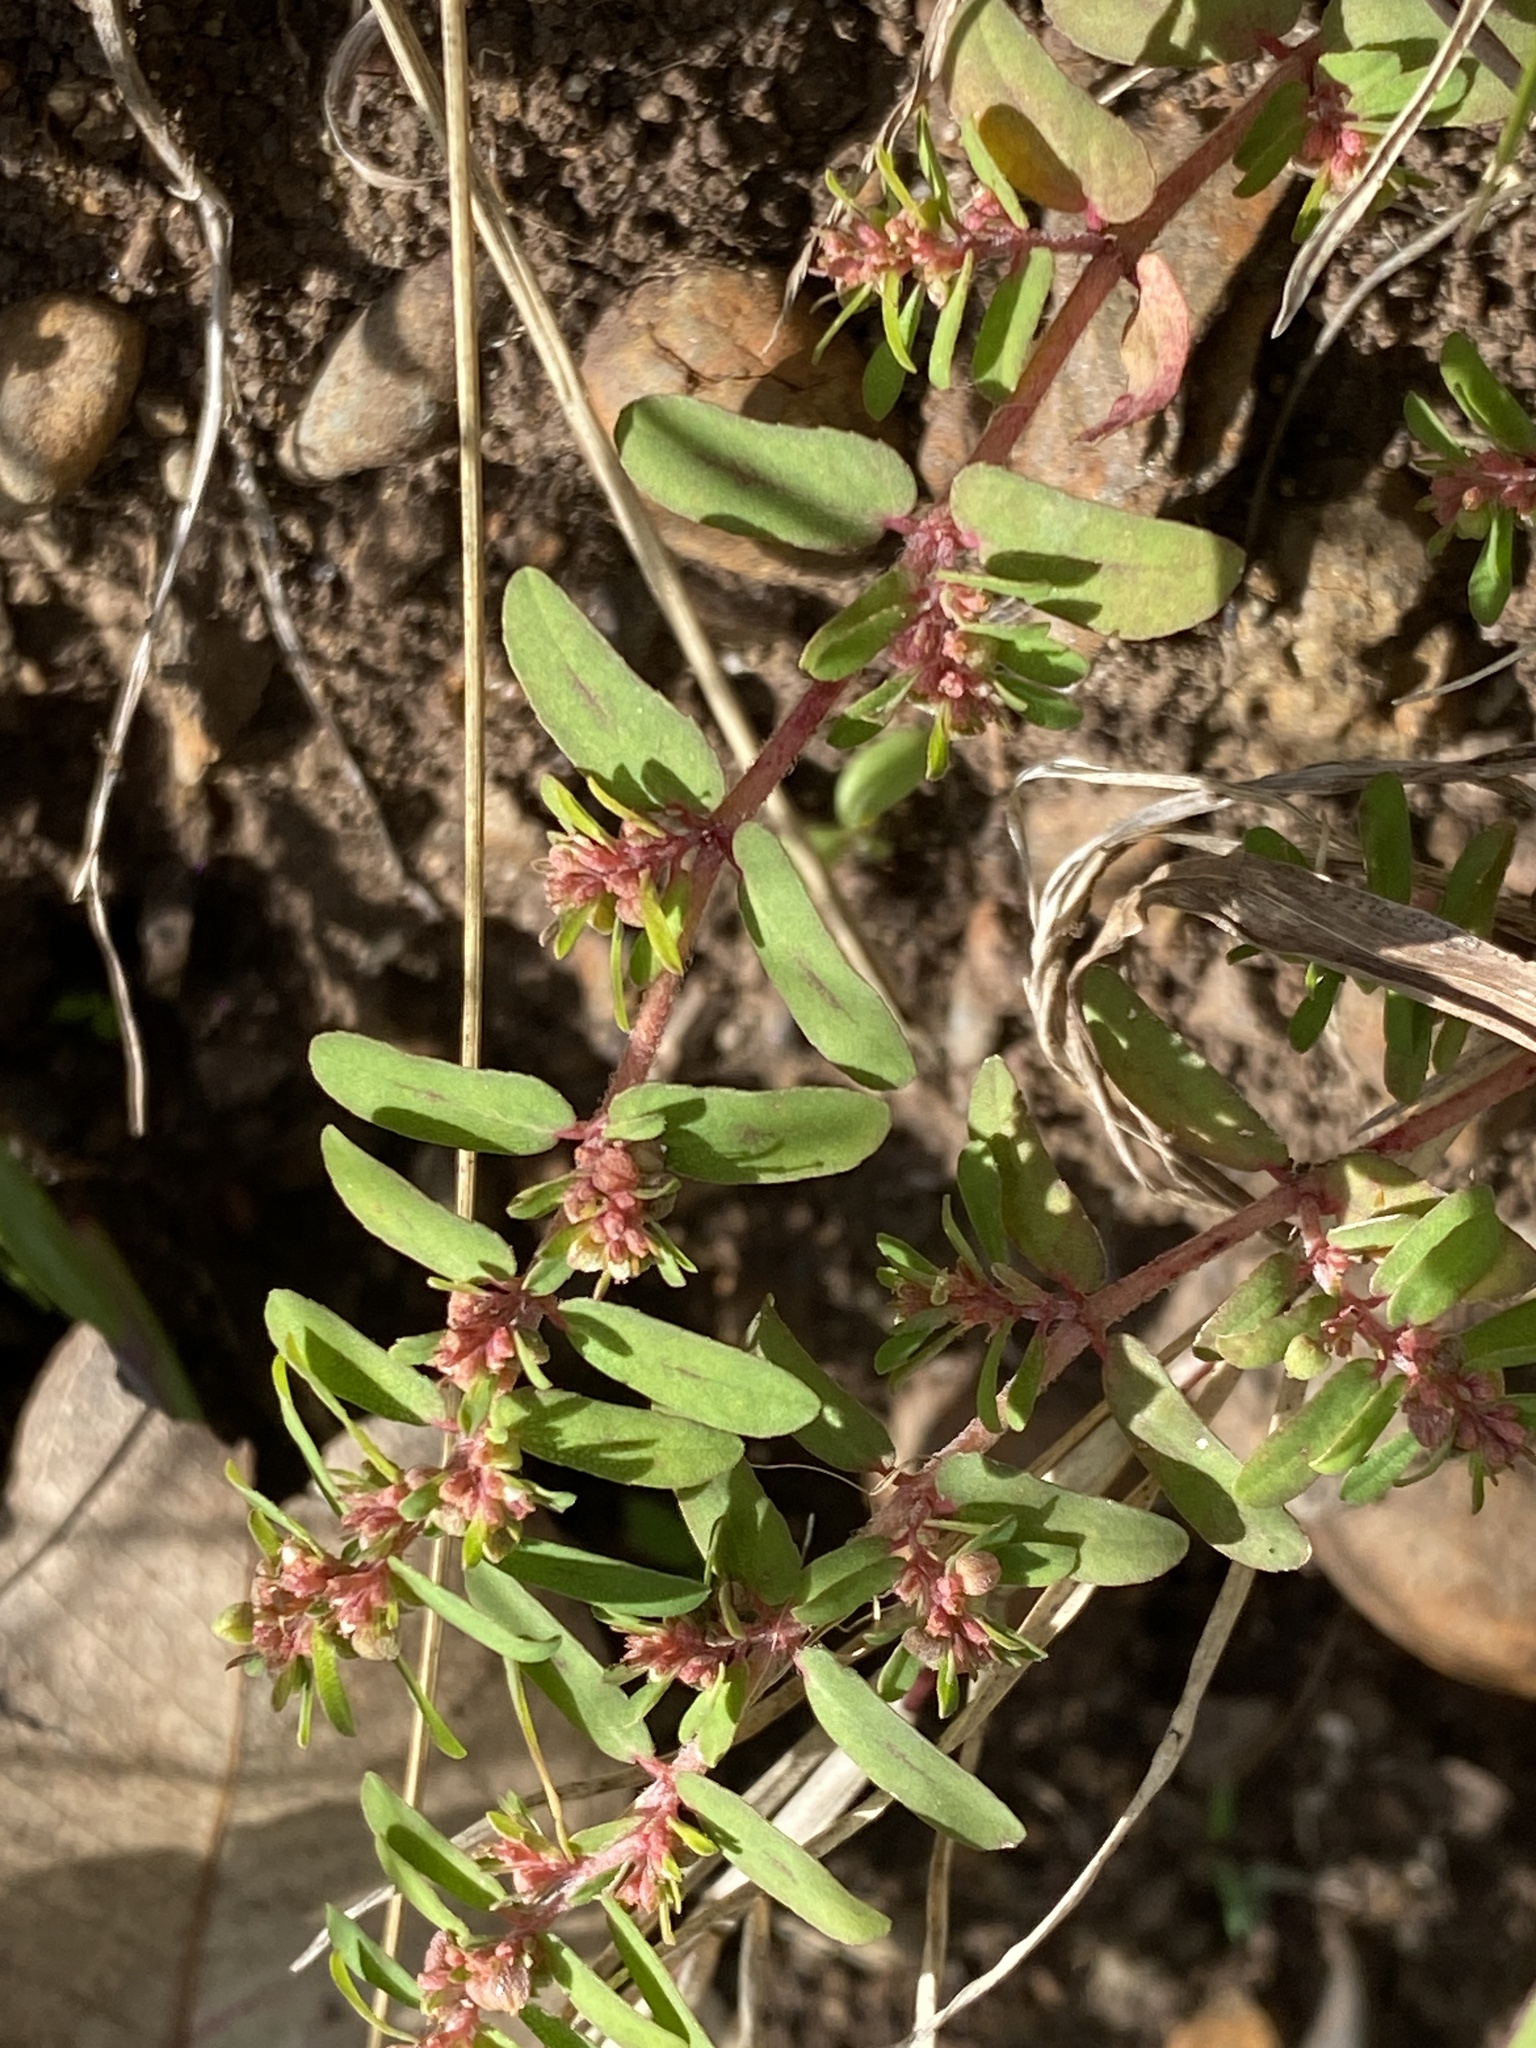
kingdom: Plantae
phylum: Tracheophyta
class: Magnoliopsida
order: Malpighiales
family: Euphorbiaceae
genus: Euphorbia
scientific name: Euphorbia maculata
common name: Spotted spurge
